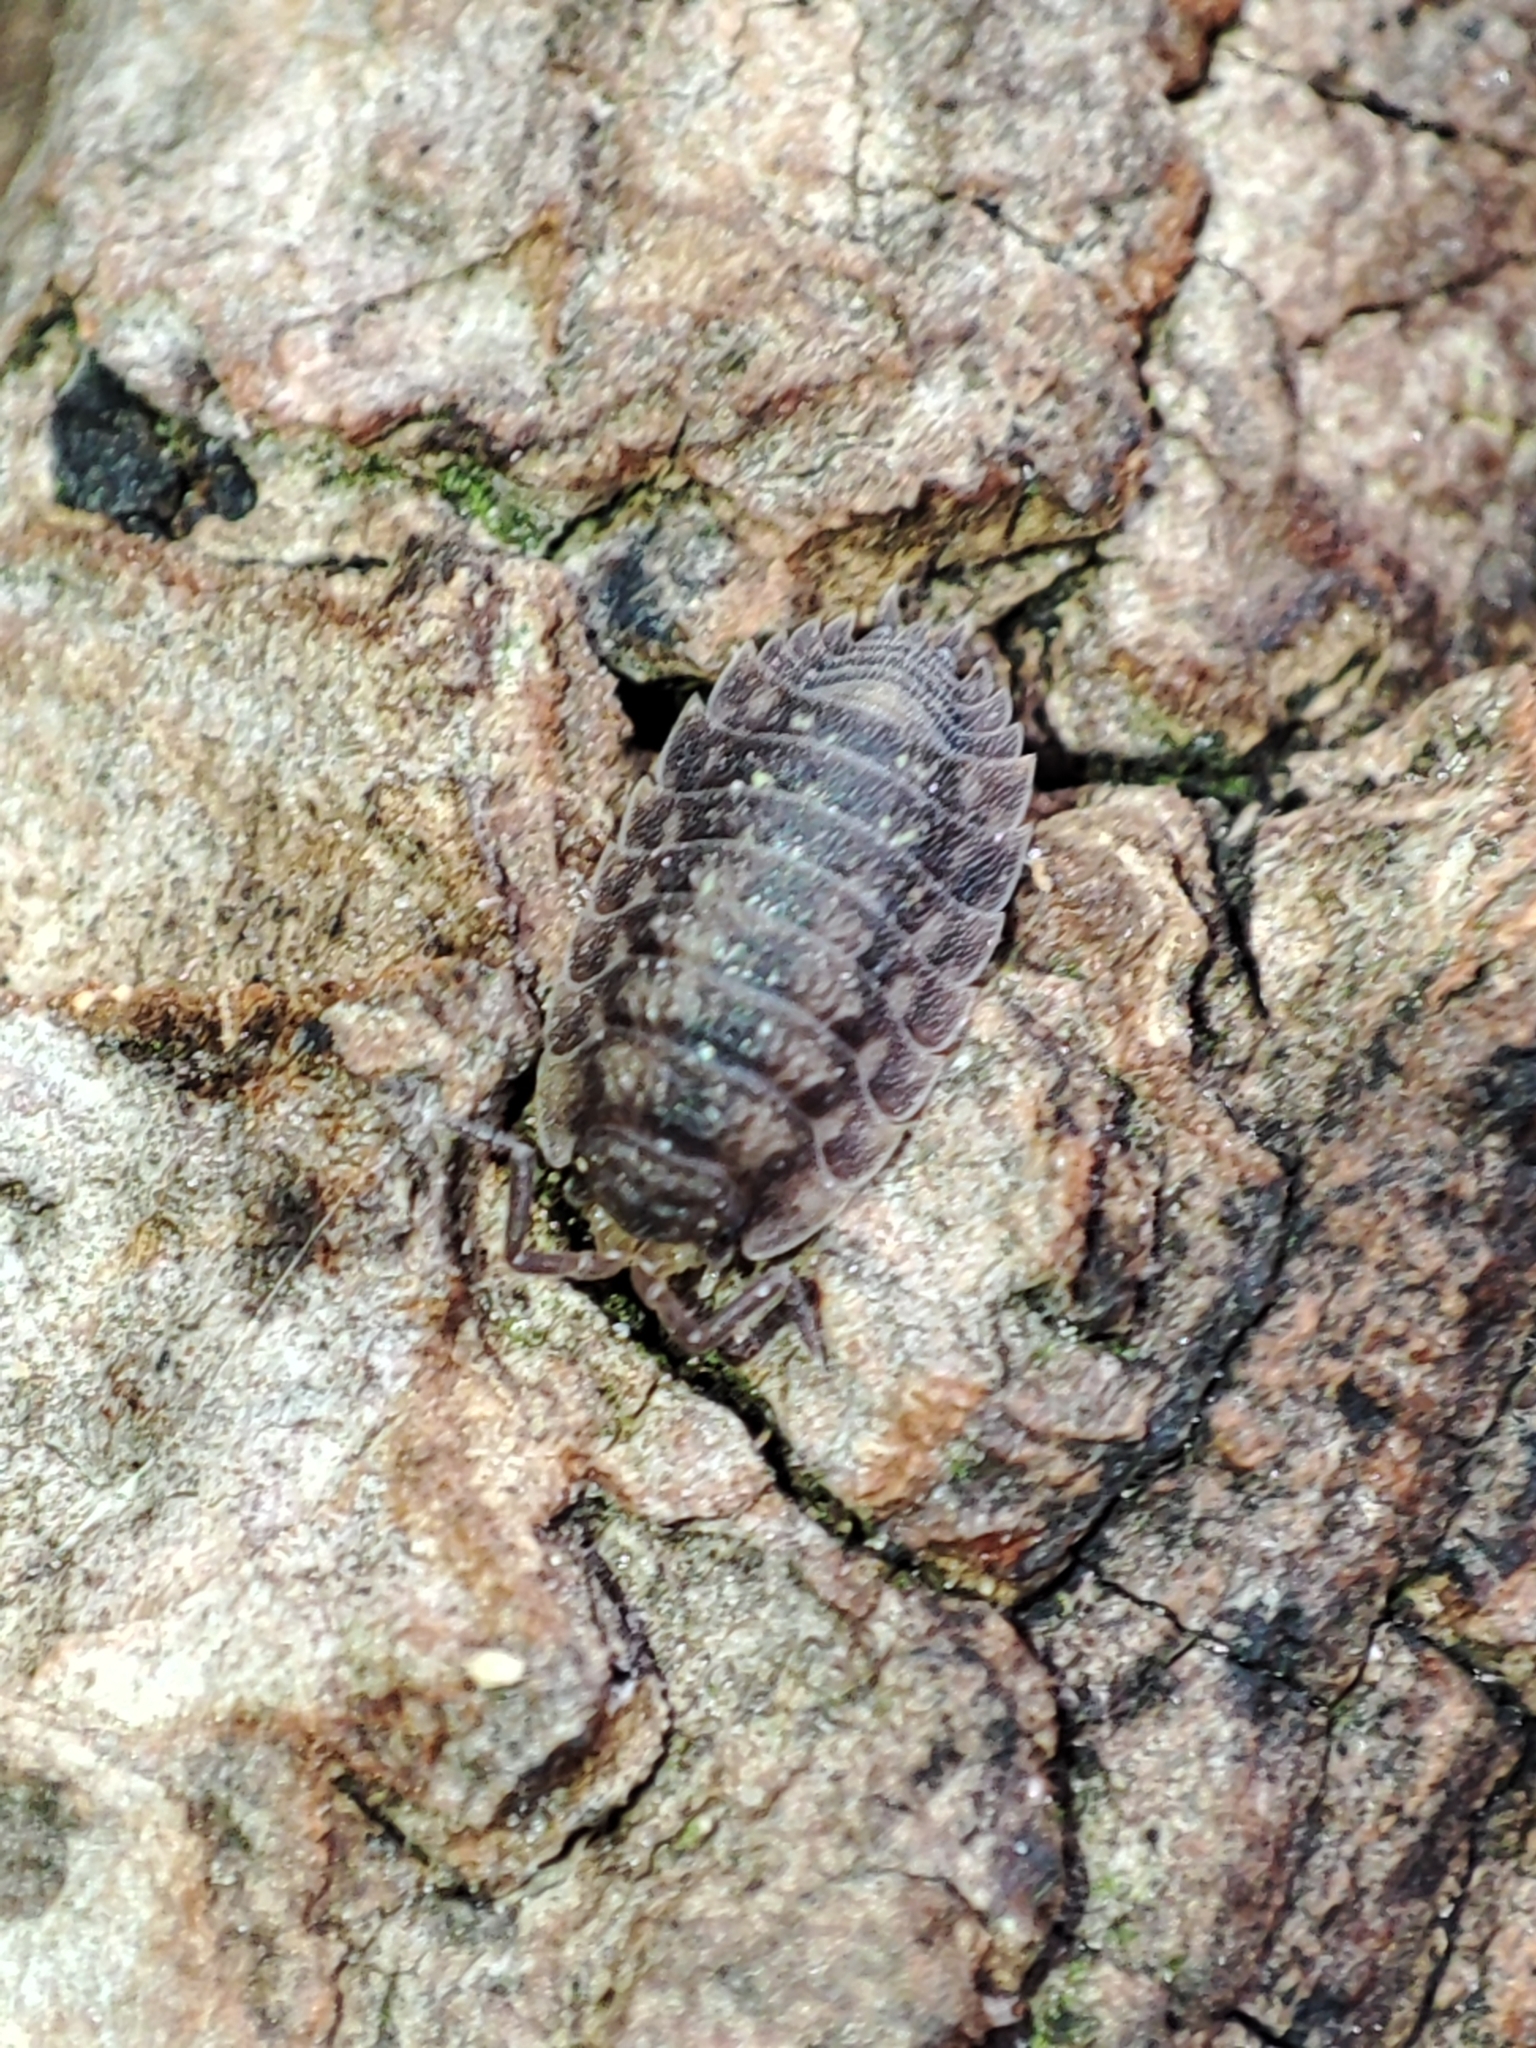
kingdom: Animalia
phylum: Arthropoda
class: Malacostraca
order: Isopoda
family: Oniscidae
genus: Oniscus
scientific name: Oniscus asellus
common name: Common shiny woodlouse
